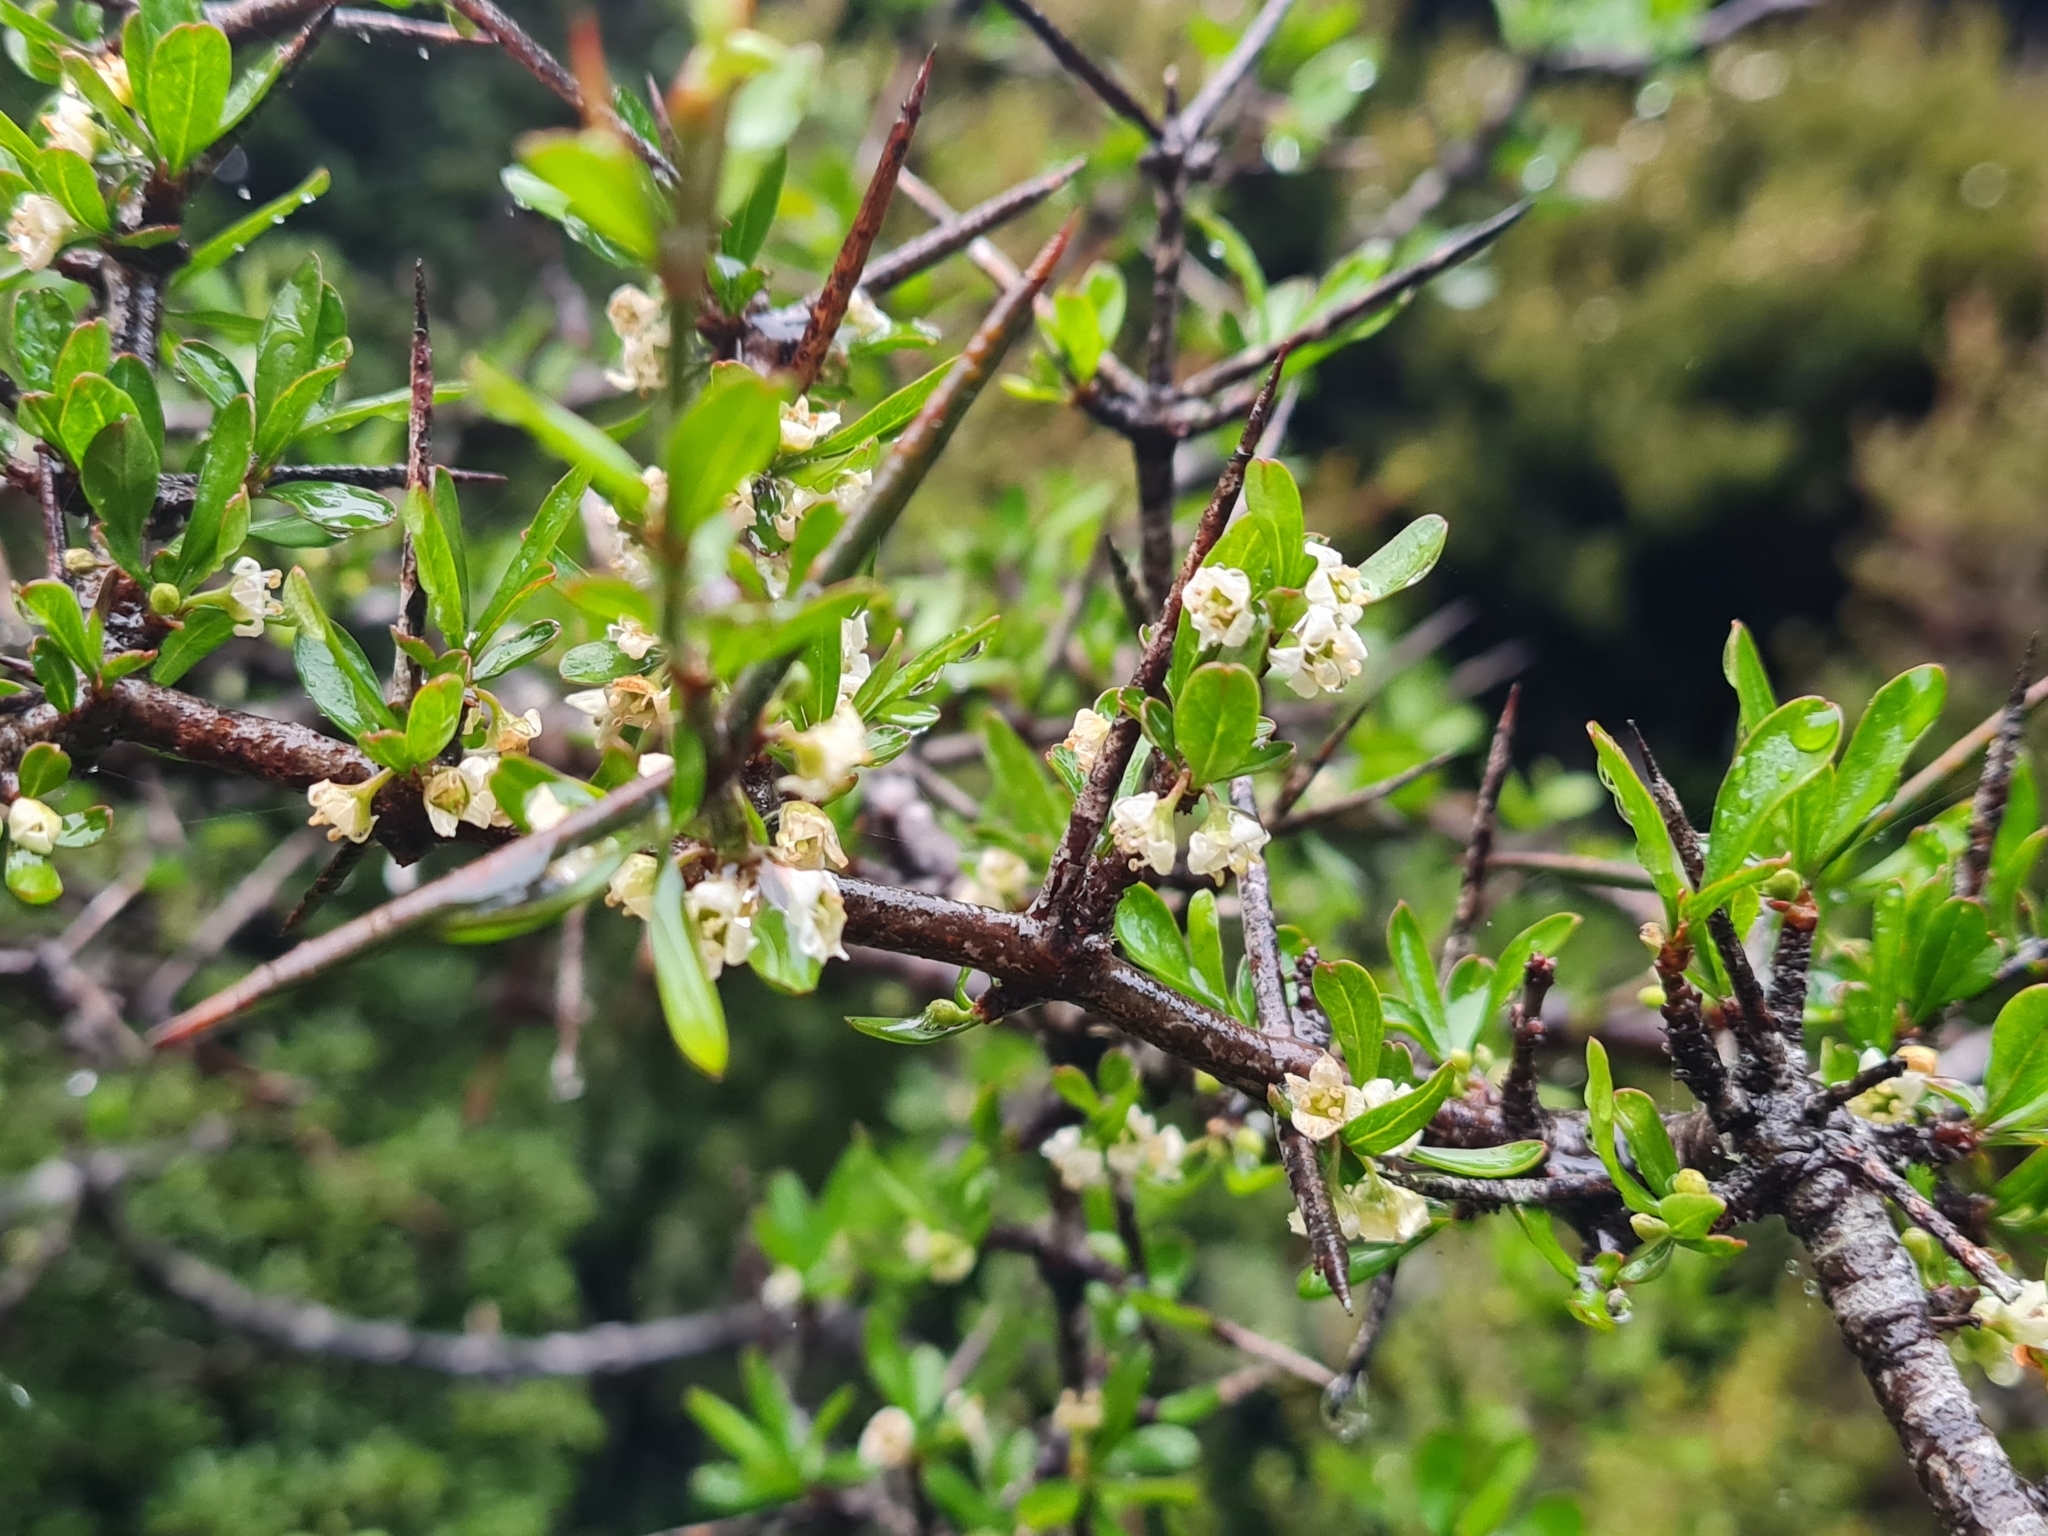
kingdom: Plantae
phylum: Tracheophyta
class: Magnoliopsida
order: Rosales
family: Rhamnaceae
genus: Discaria
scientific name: Discaria toumatou
